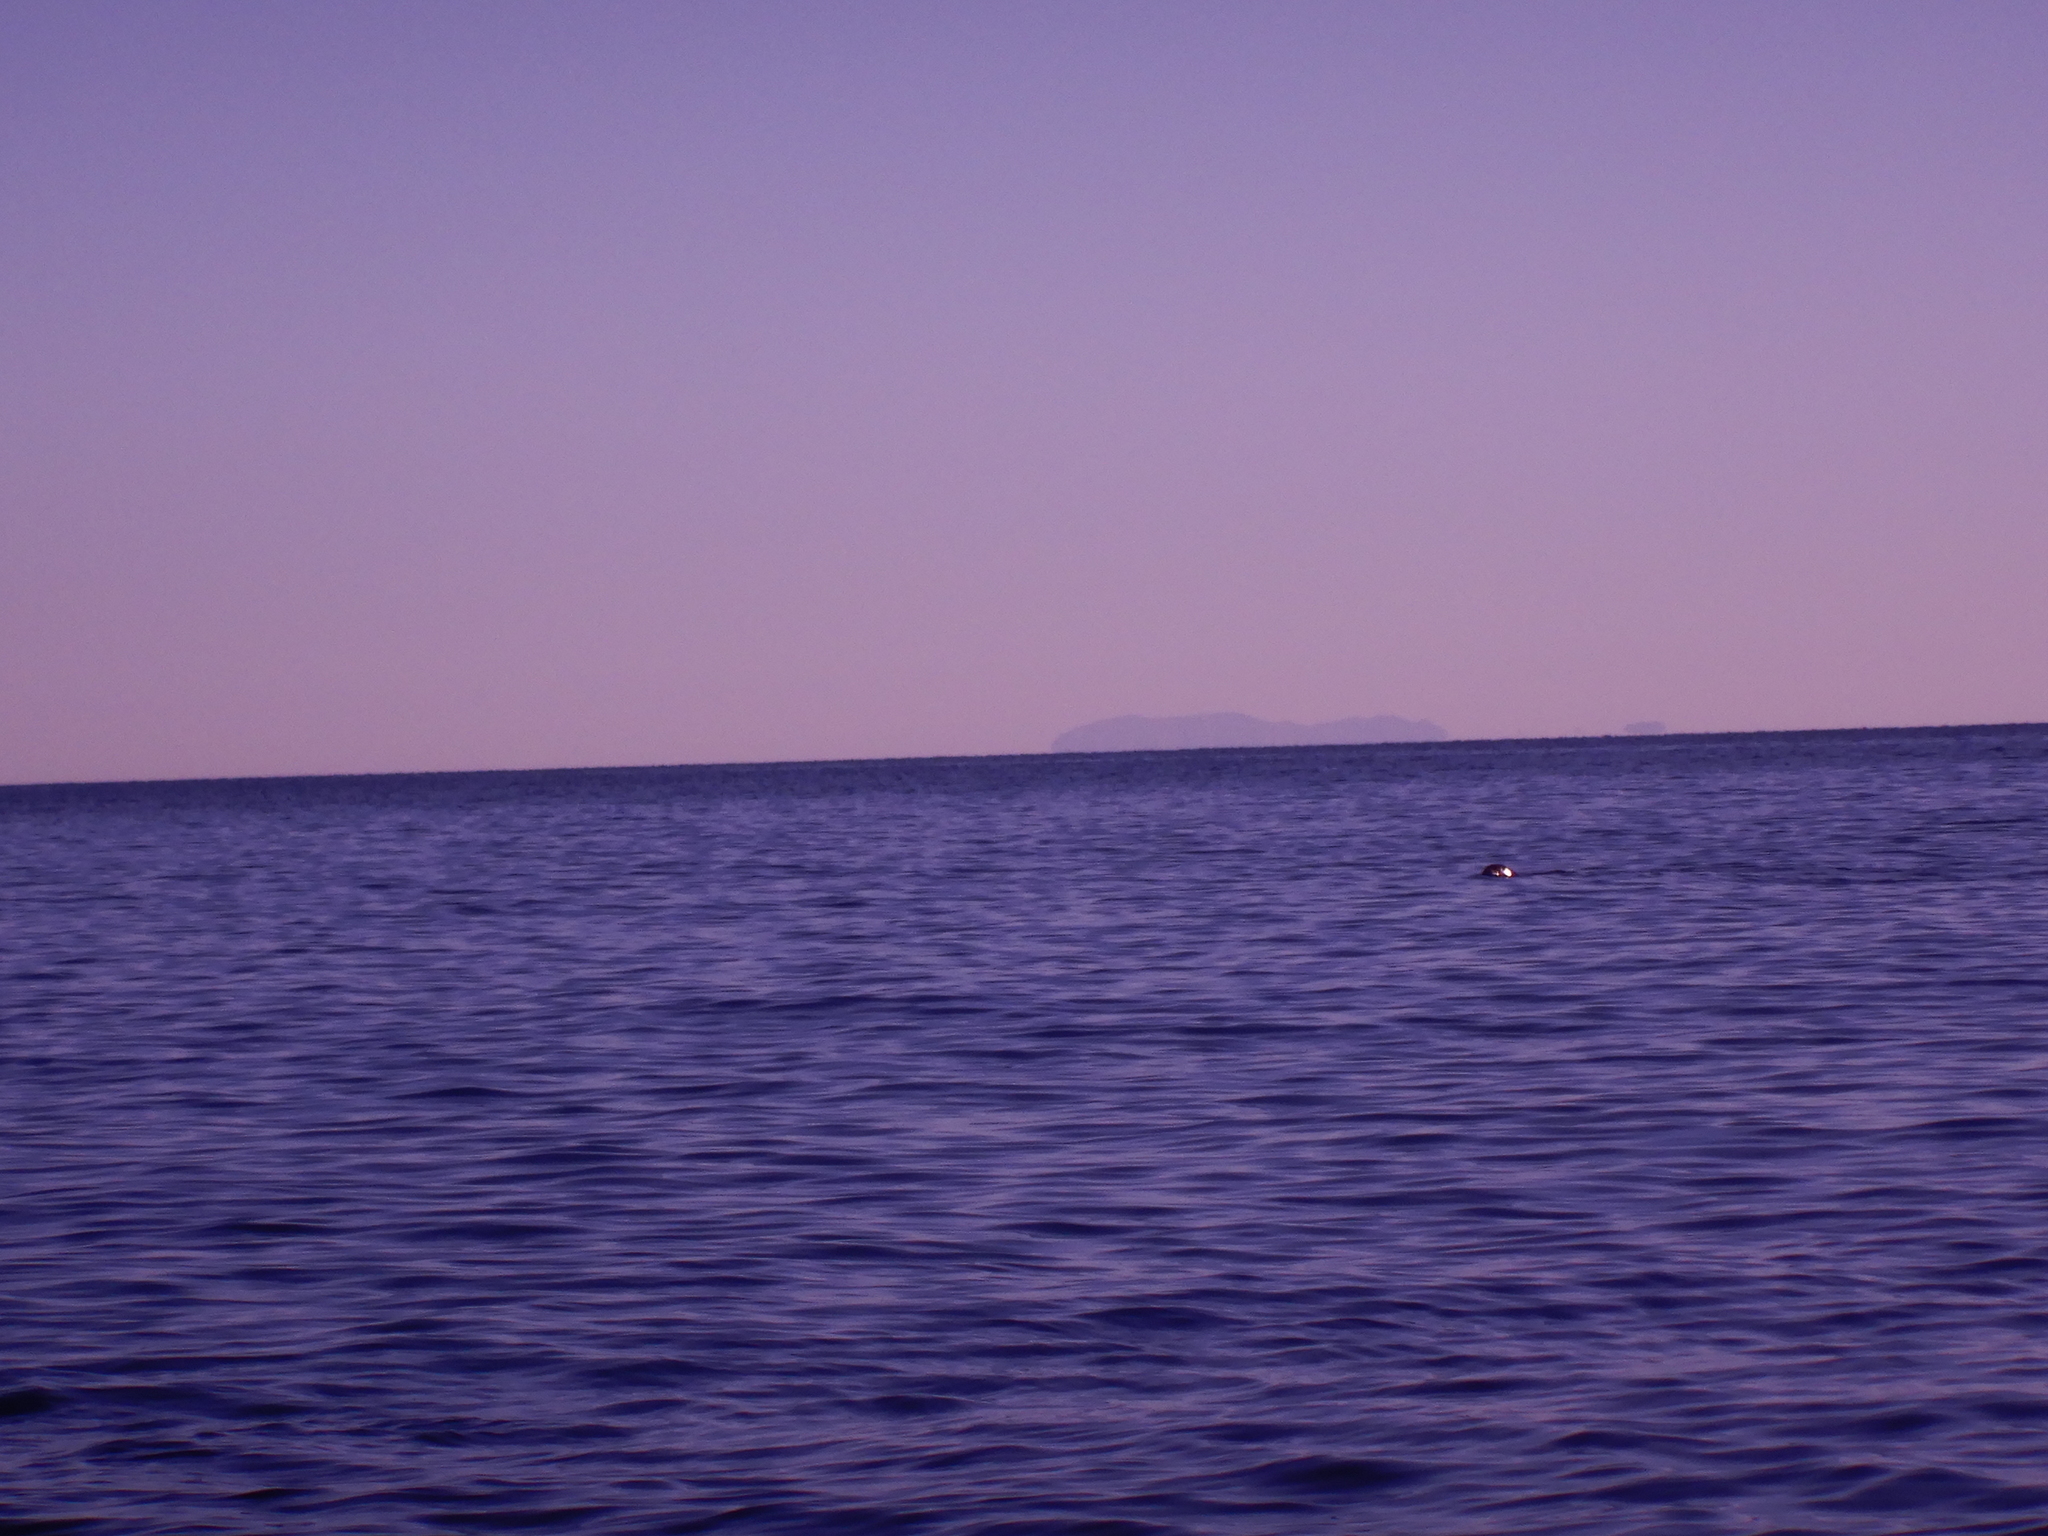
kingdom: Animalia
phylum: Chordata
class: Mammalia
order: Carnivora
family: Phocidae
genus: Monachus
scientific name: Monachus monachus
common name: Mediterranean monk seal
